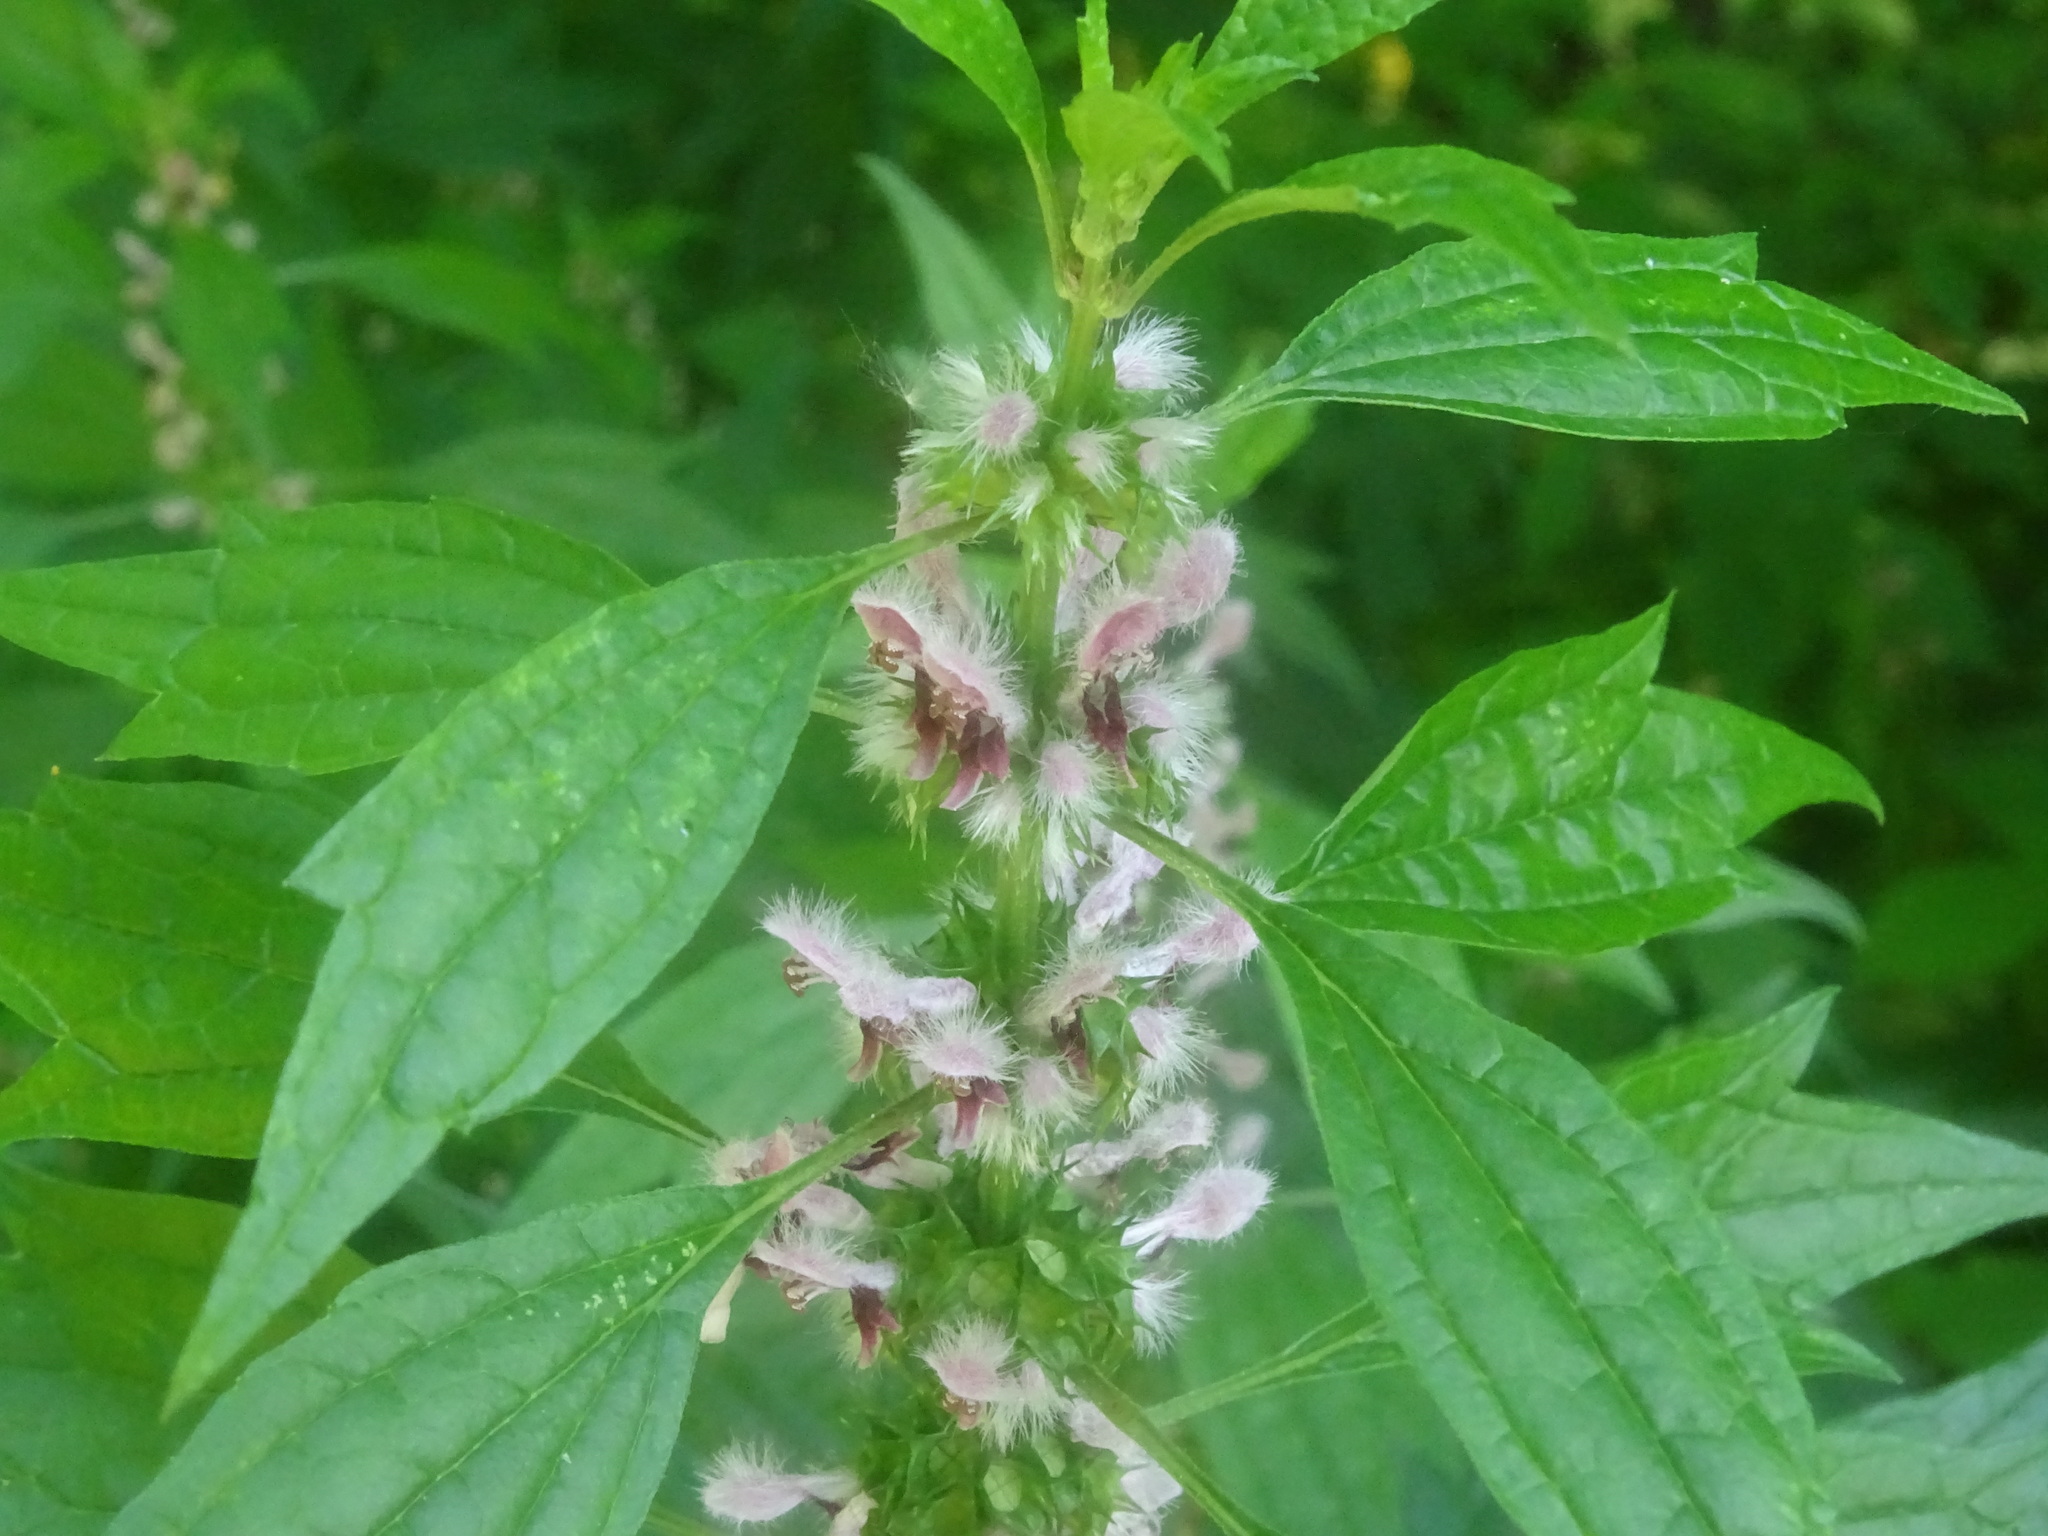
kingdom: Plantae
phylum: Tracheophyta
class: Magnoliopsida
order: Lamiales
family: Lamiaceae
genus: Leonurus
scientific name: Leonurus cardiaca
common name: Motherwort
